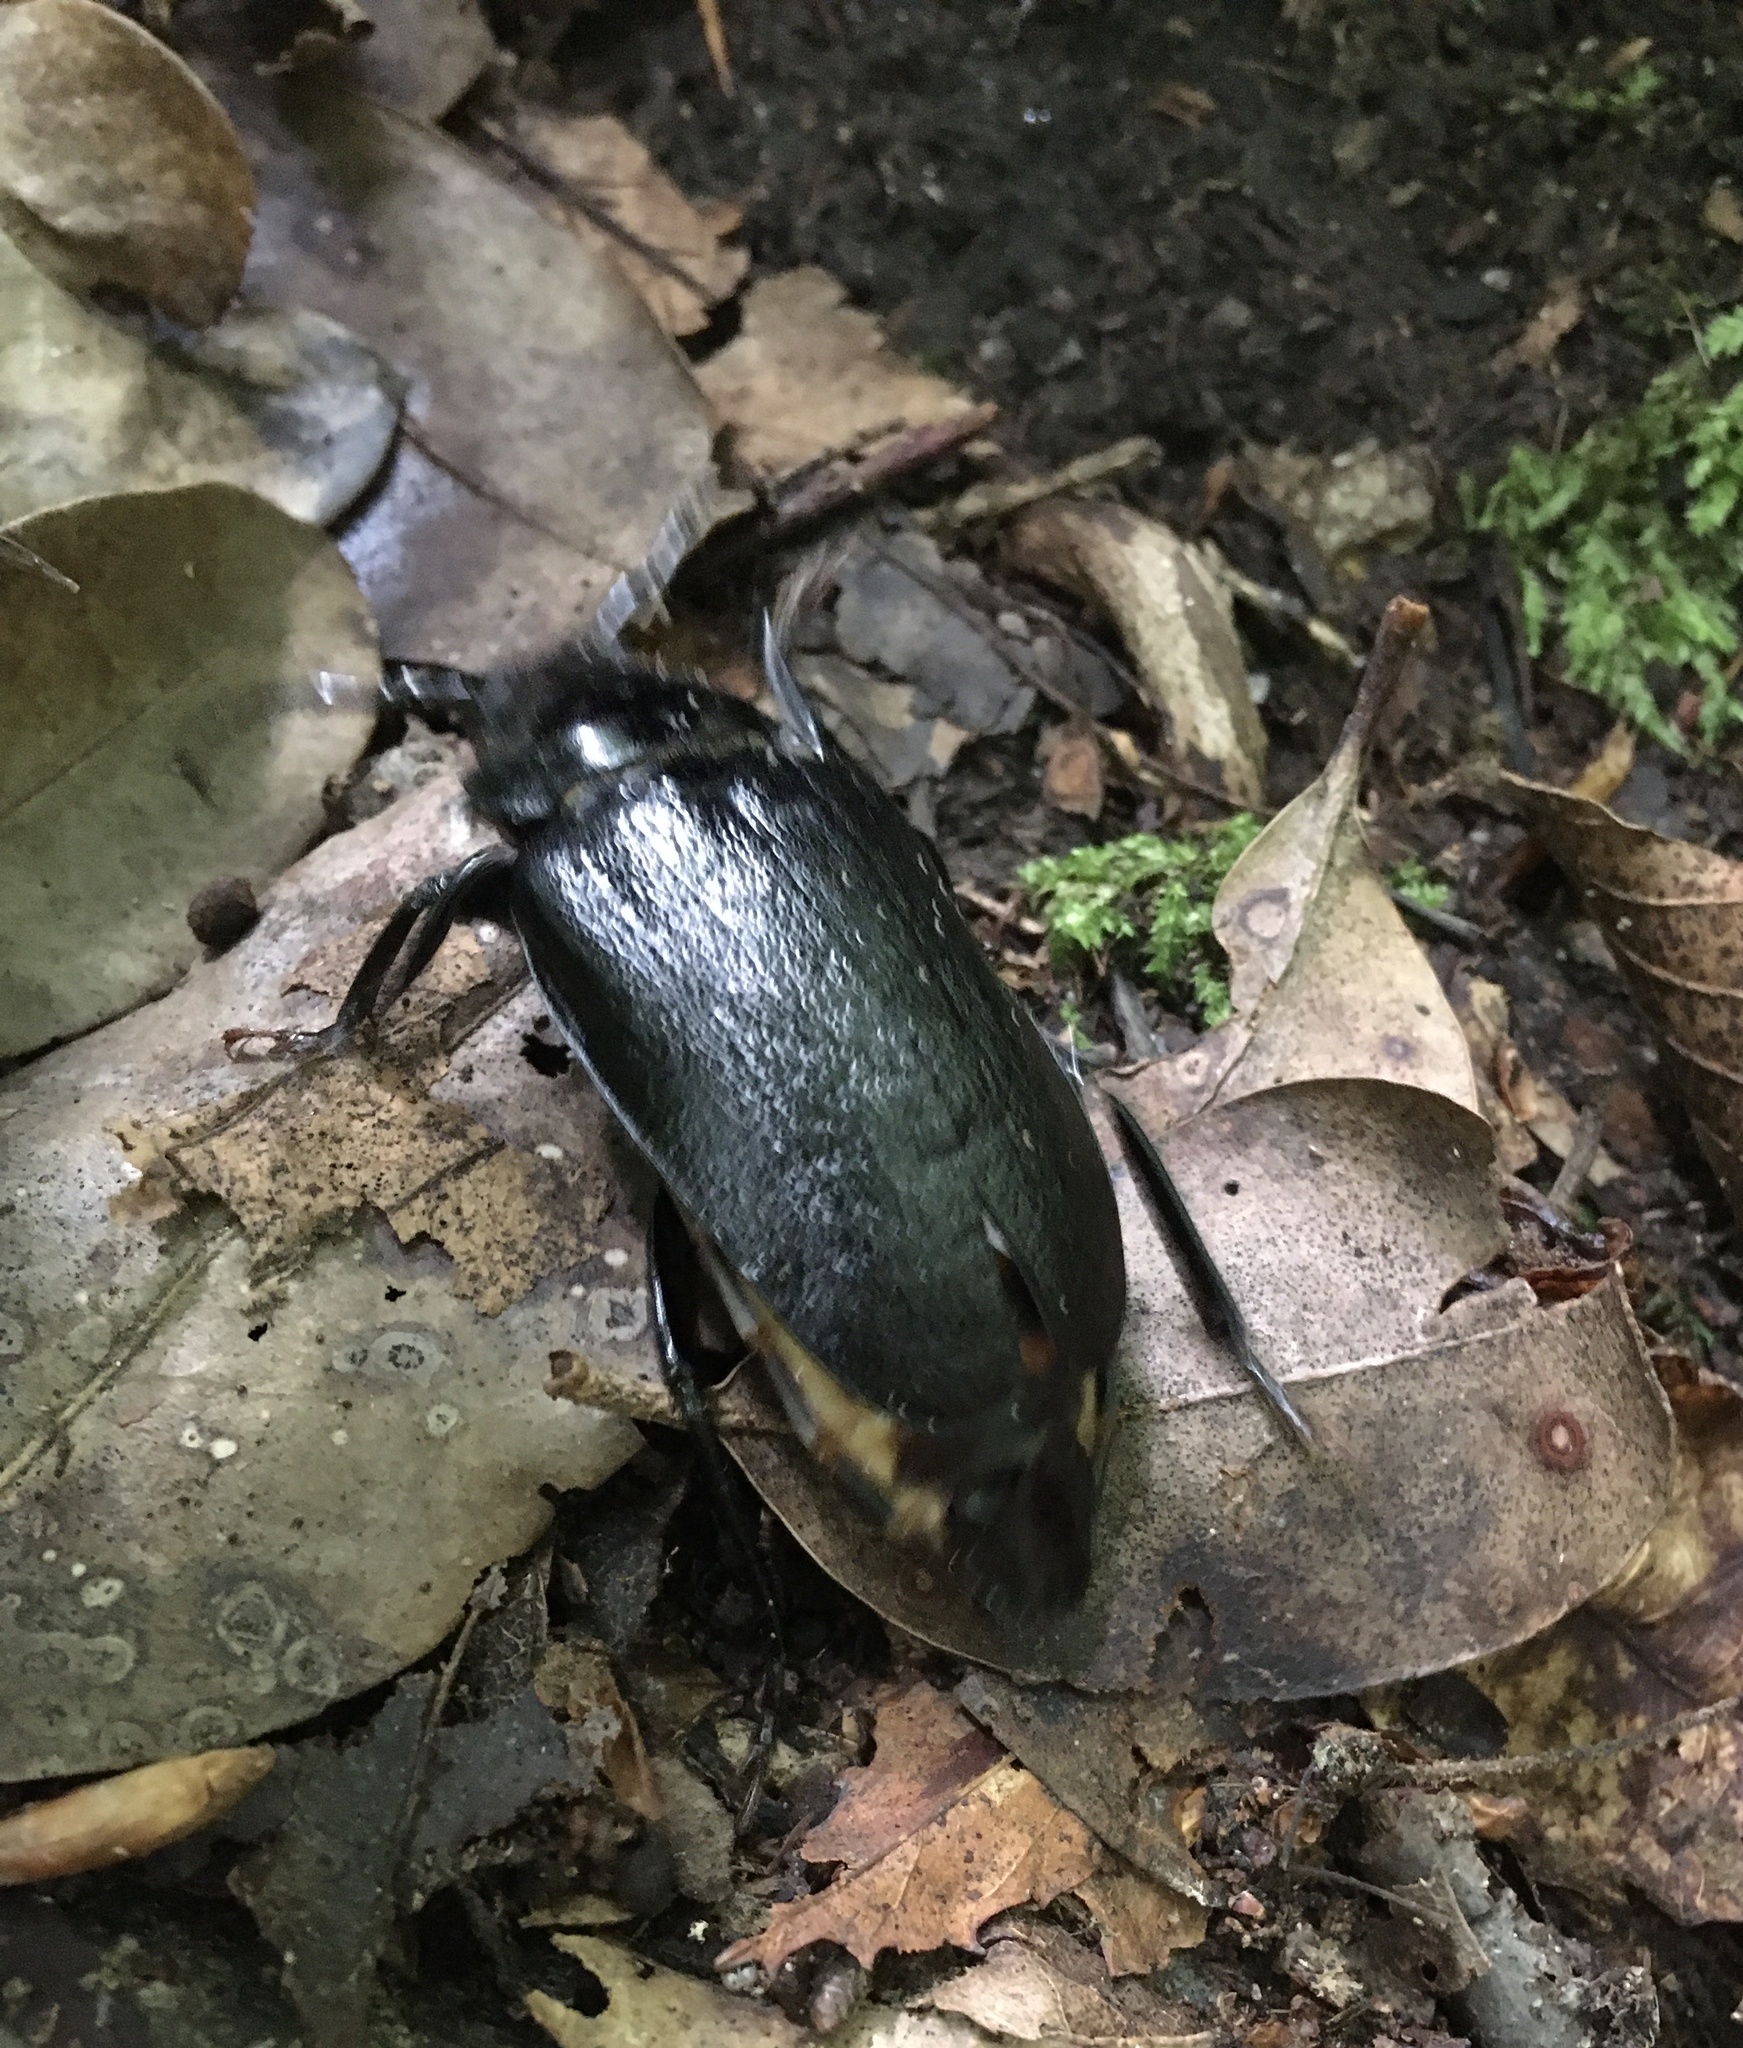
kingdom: Animalia
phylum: Arthropoda
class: Insecta
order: Coleoptera
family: Cerambycidae
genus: Prionus
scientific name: Prionus laticollis
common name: Broad necked prionus
